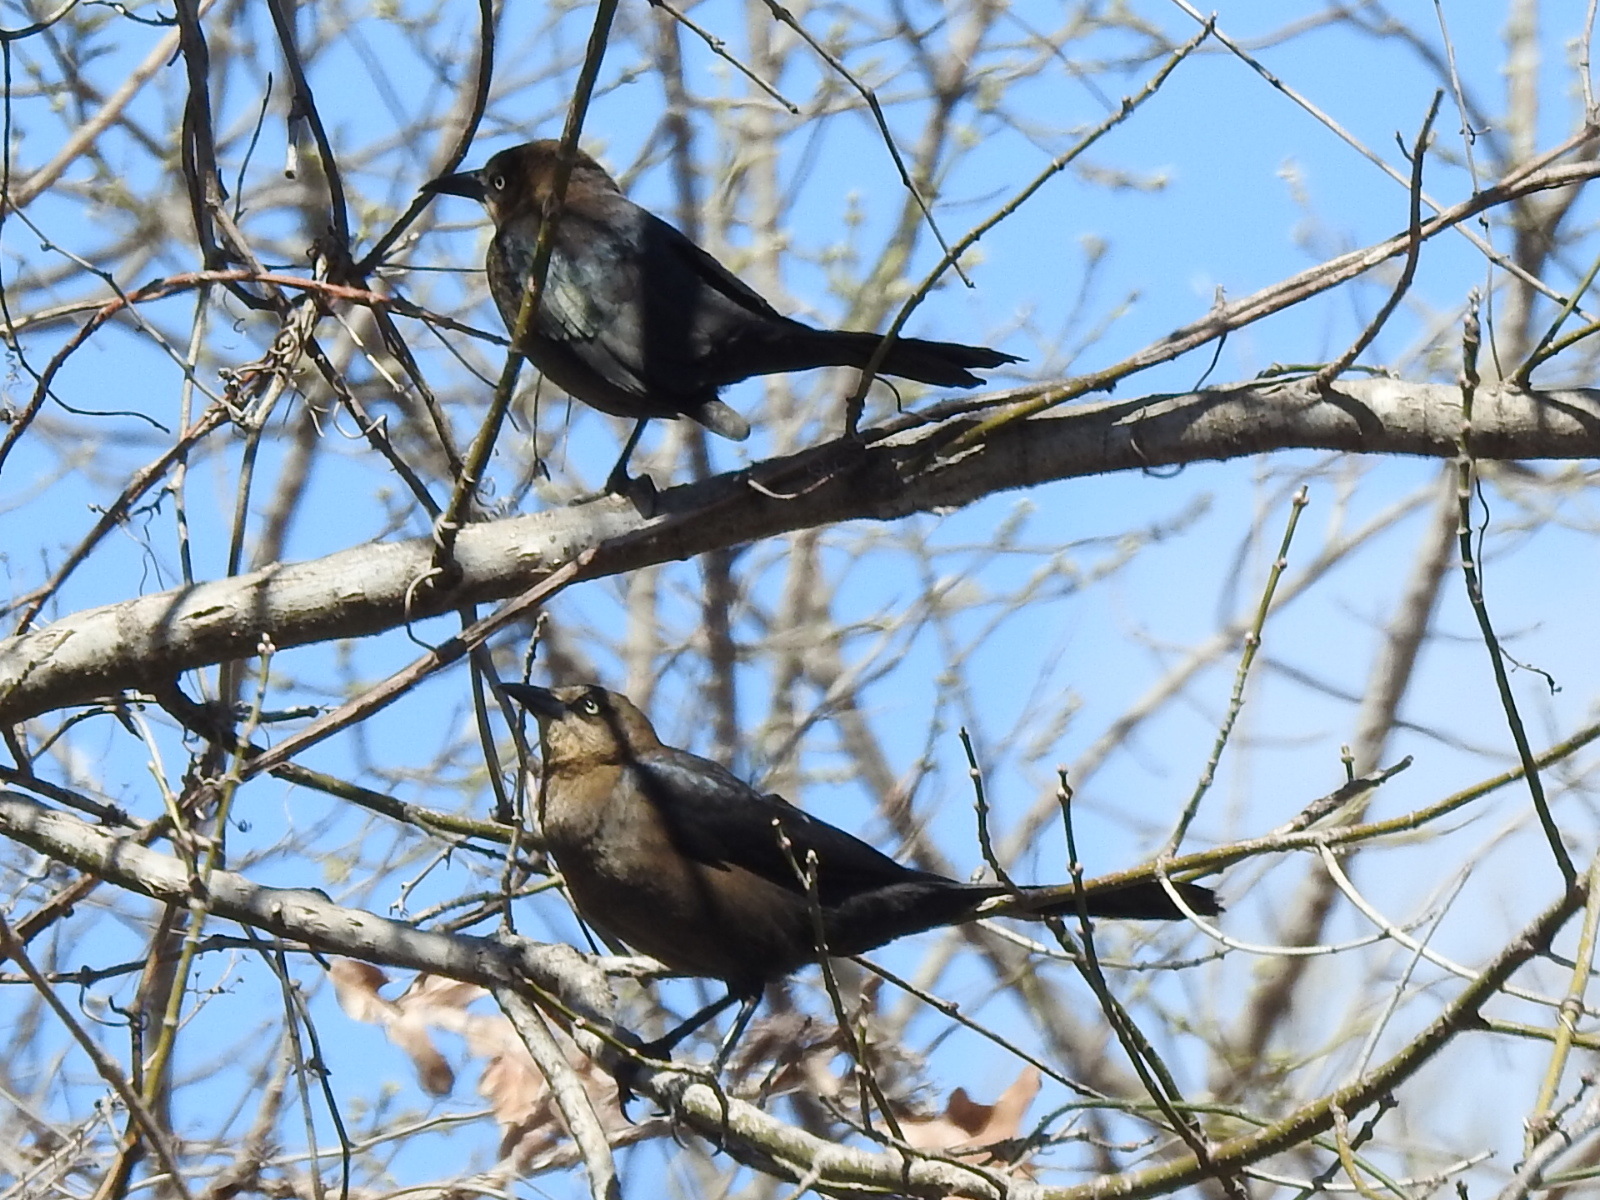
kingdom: Animalia
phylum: Chordata
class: Aves
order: Passeriformes
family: Icteridae
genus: Quiscalus
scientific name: Quiscalus mexicanus
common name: Great-tailed grackle
